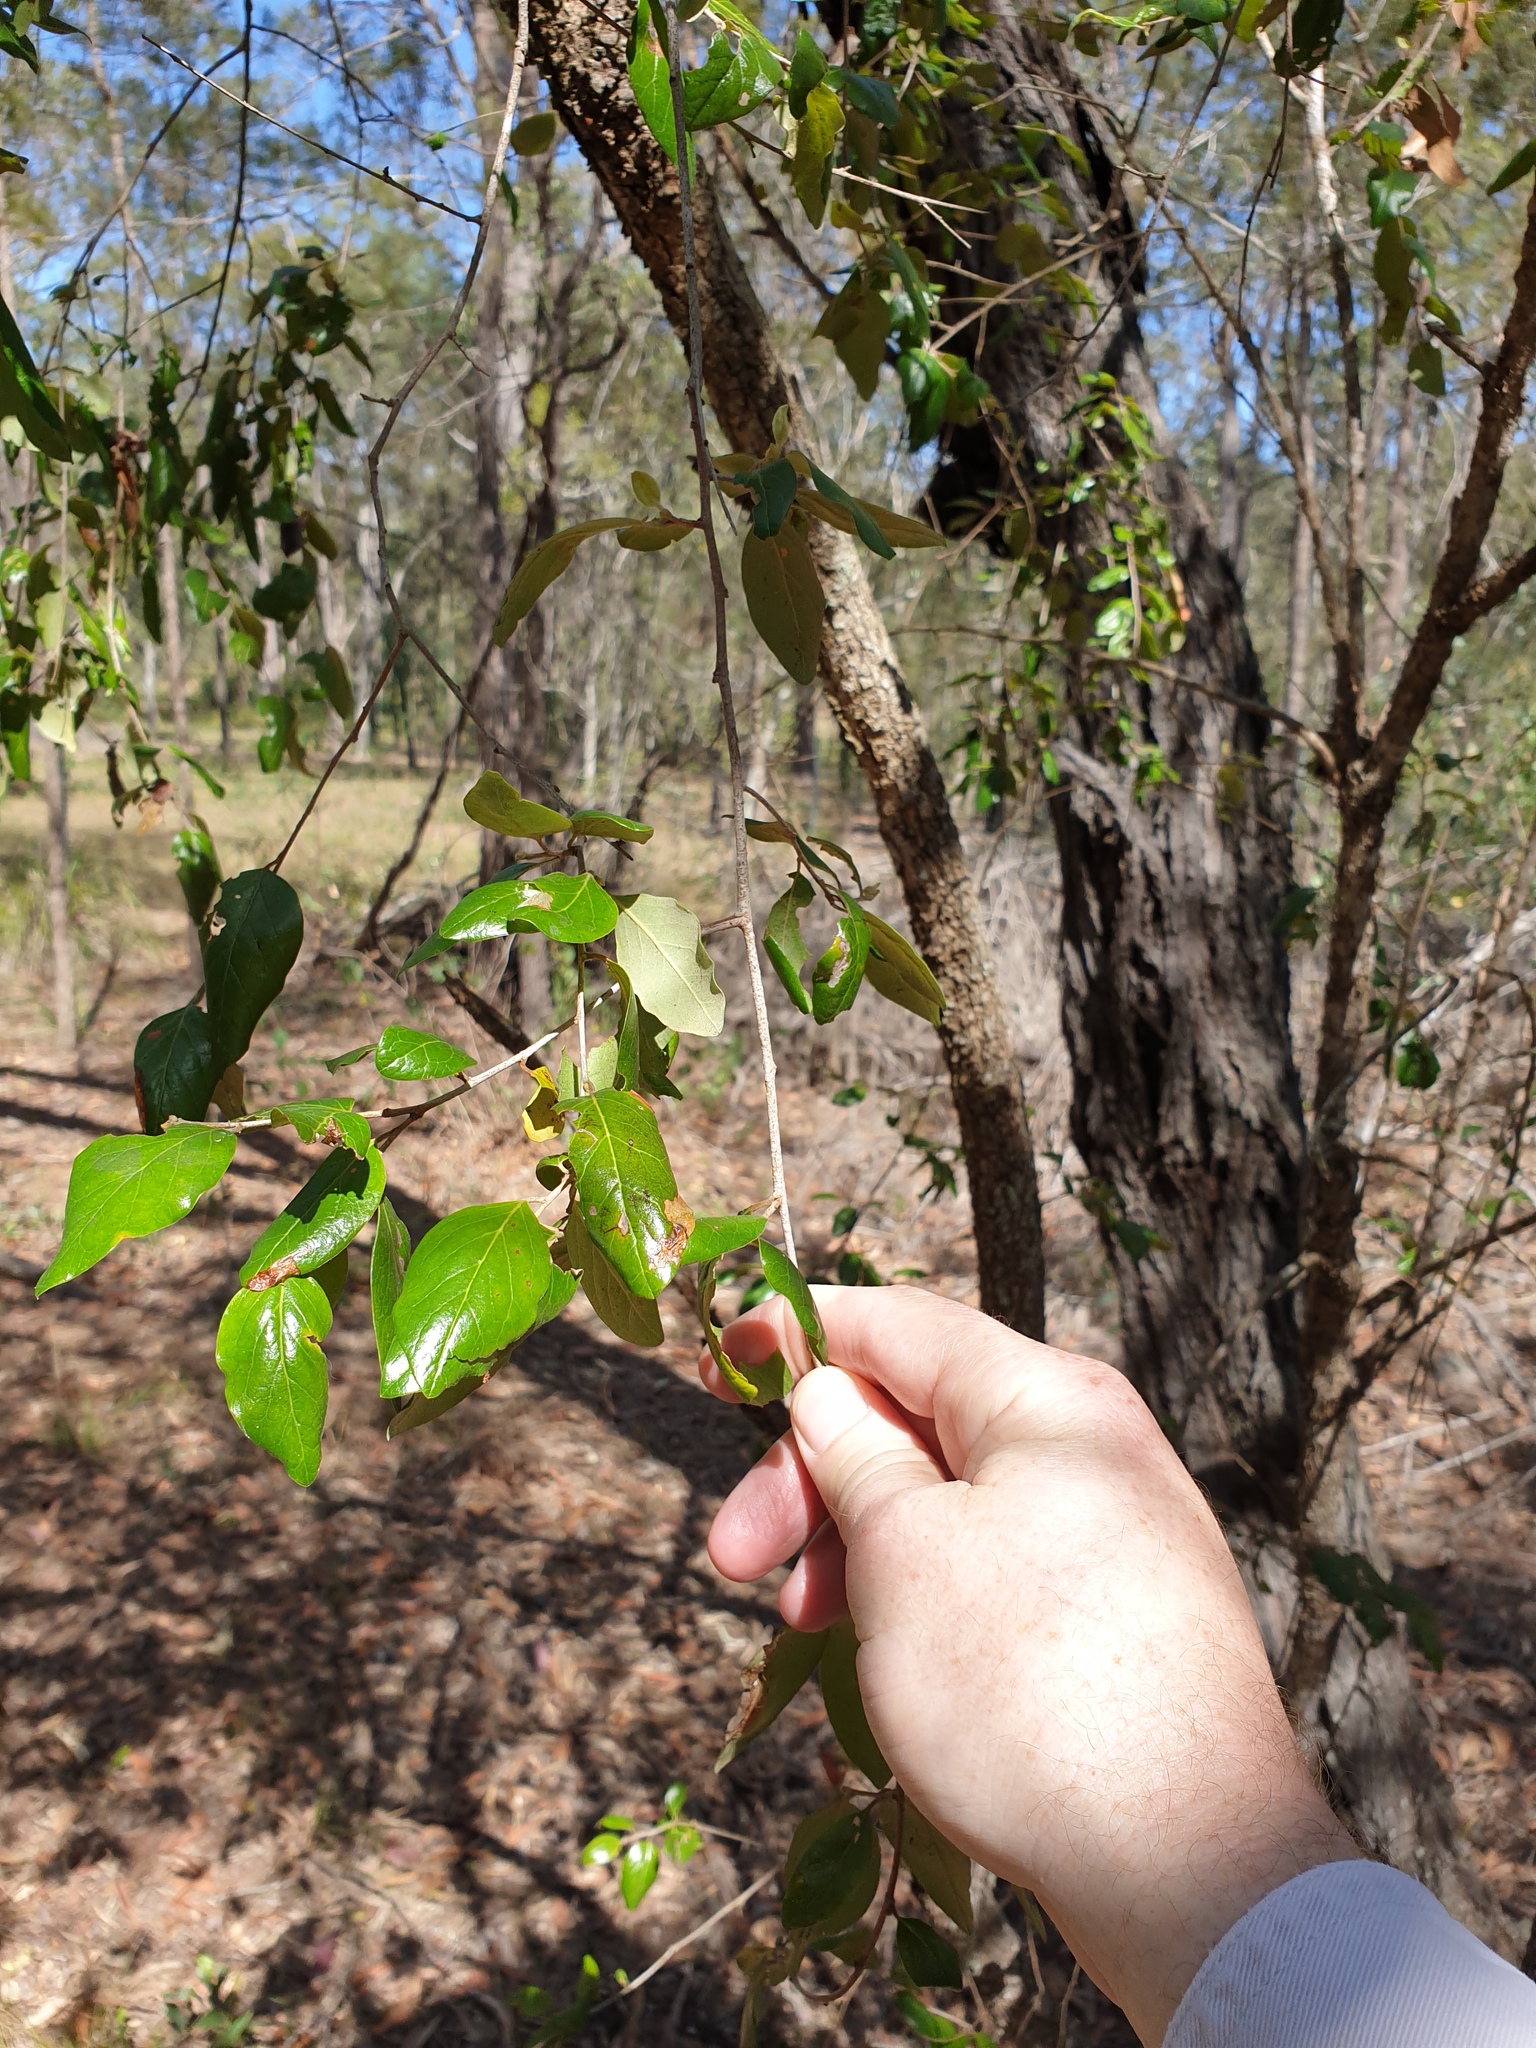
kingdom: Plantae
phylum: Tracheophyta
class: Magnoliopsida
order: Malpighiales
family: Picrodendraceae
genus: Petalostigma
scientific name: Petalostigma pubescens
